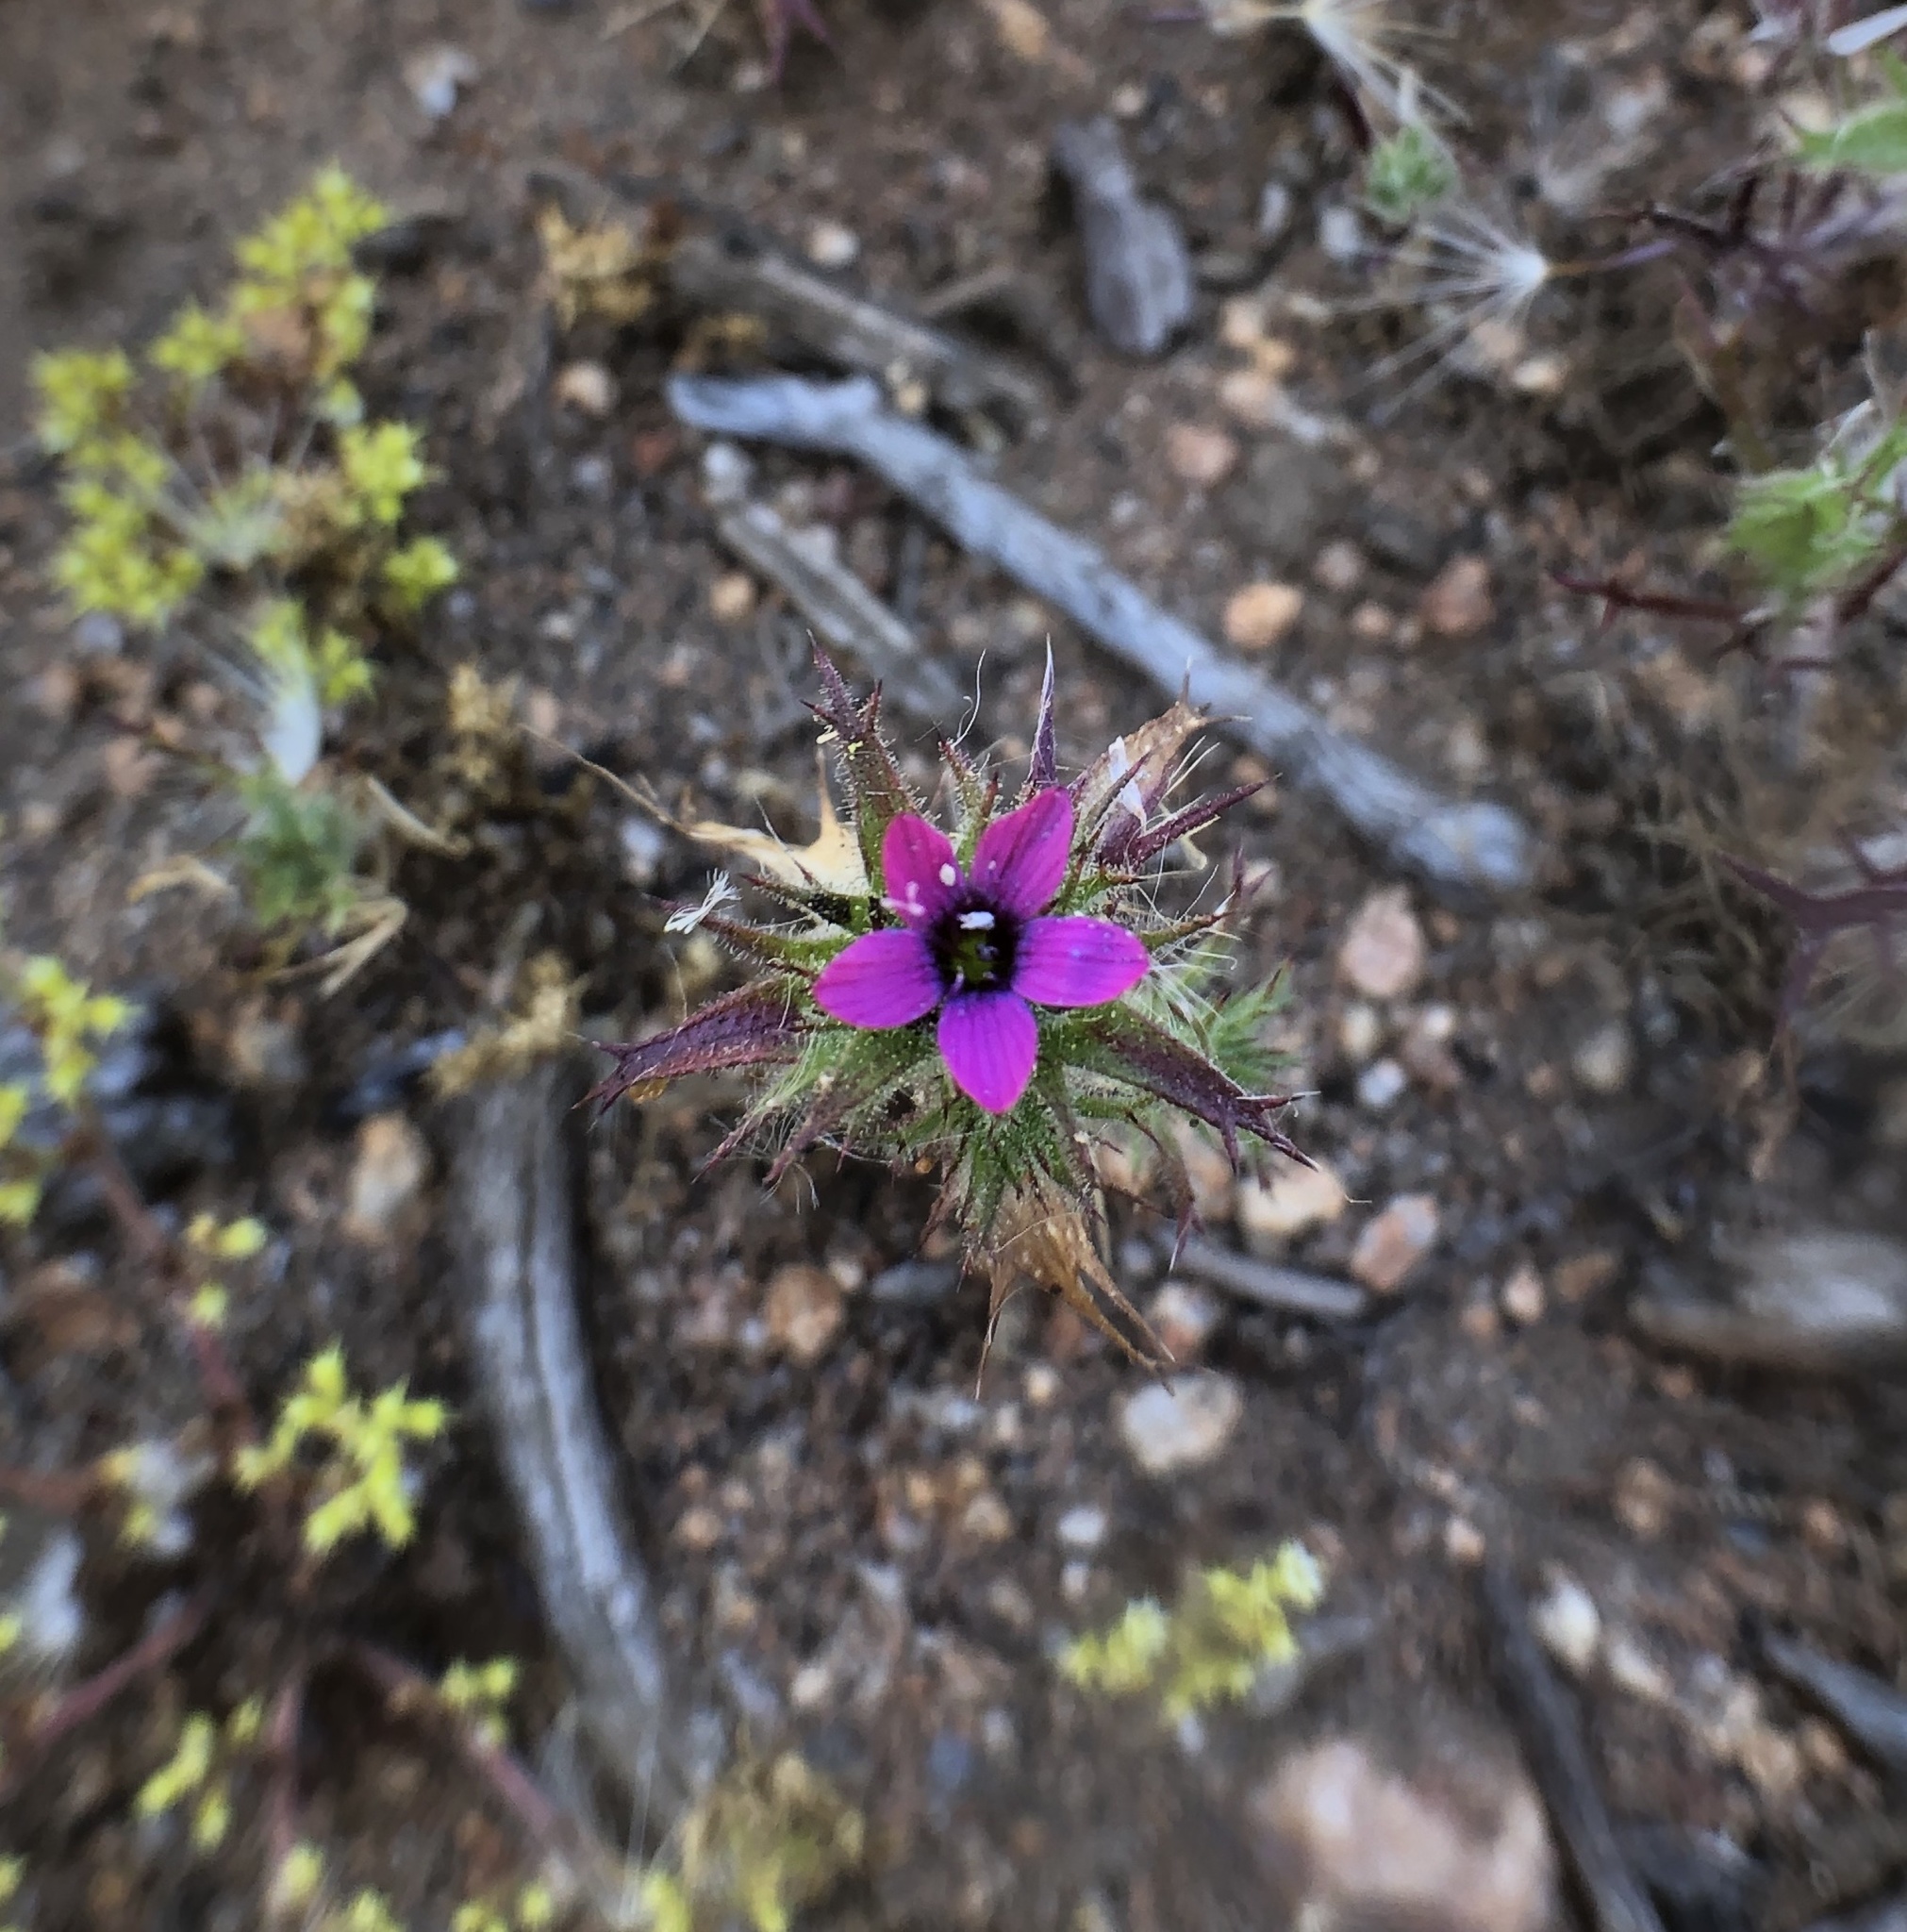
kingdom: Plantae
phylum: Tracheophyta
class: Magnoliopsida
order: Ericales
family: Polemoniaceae
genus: Navarretia
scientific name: Navarretia hamata
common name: Hooked navarretia
